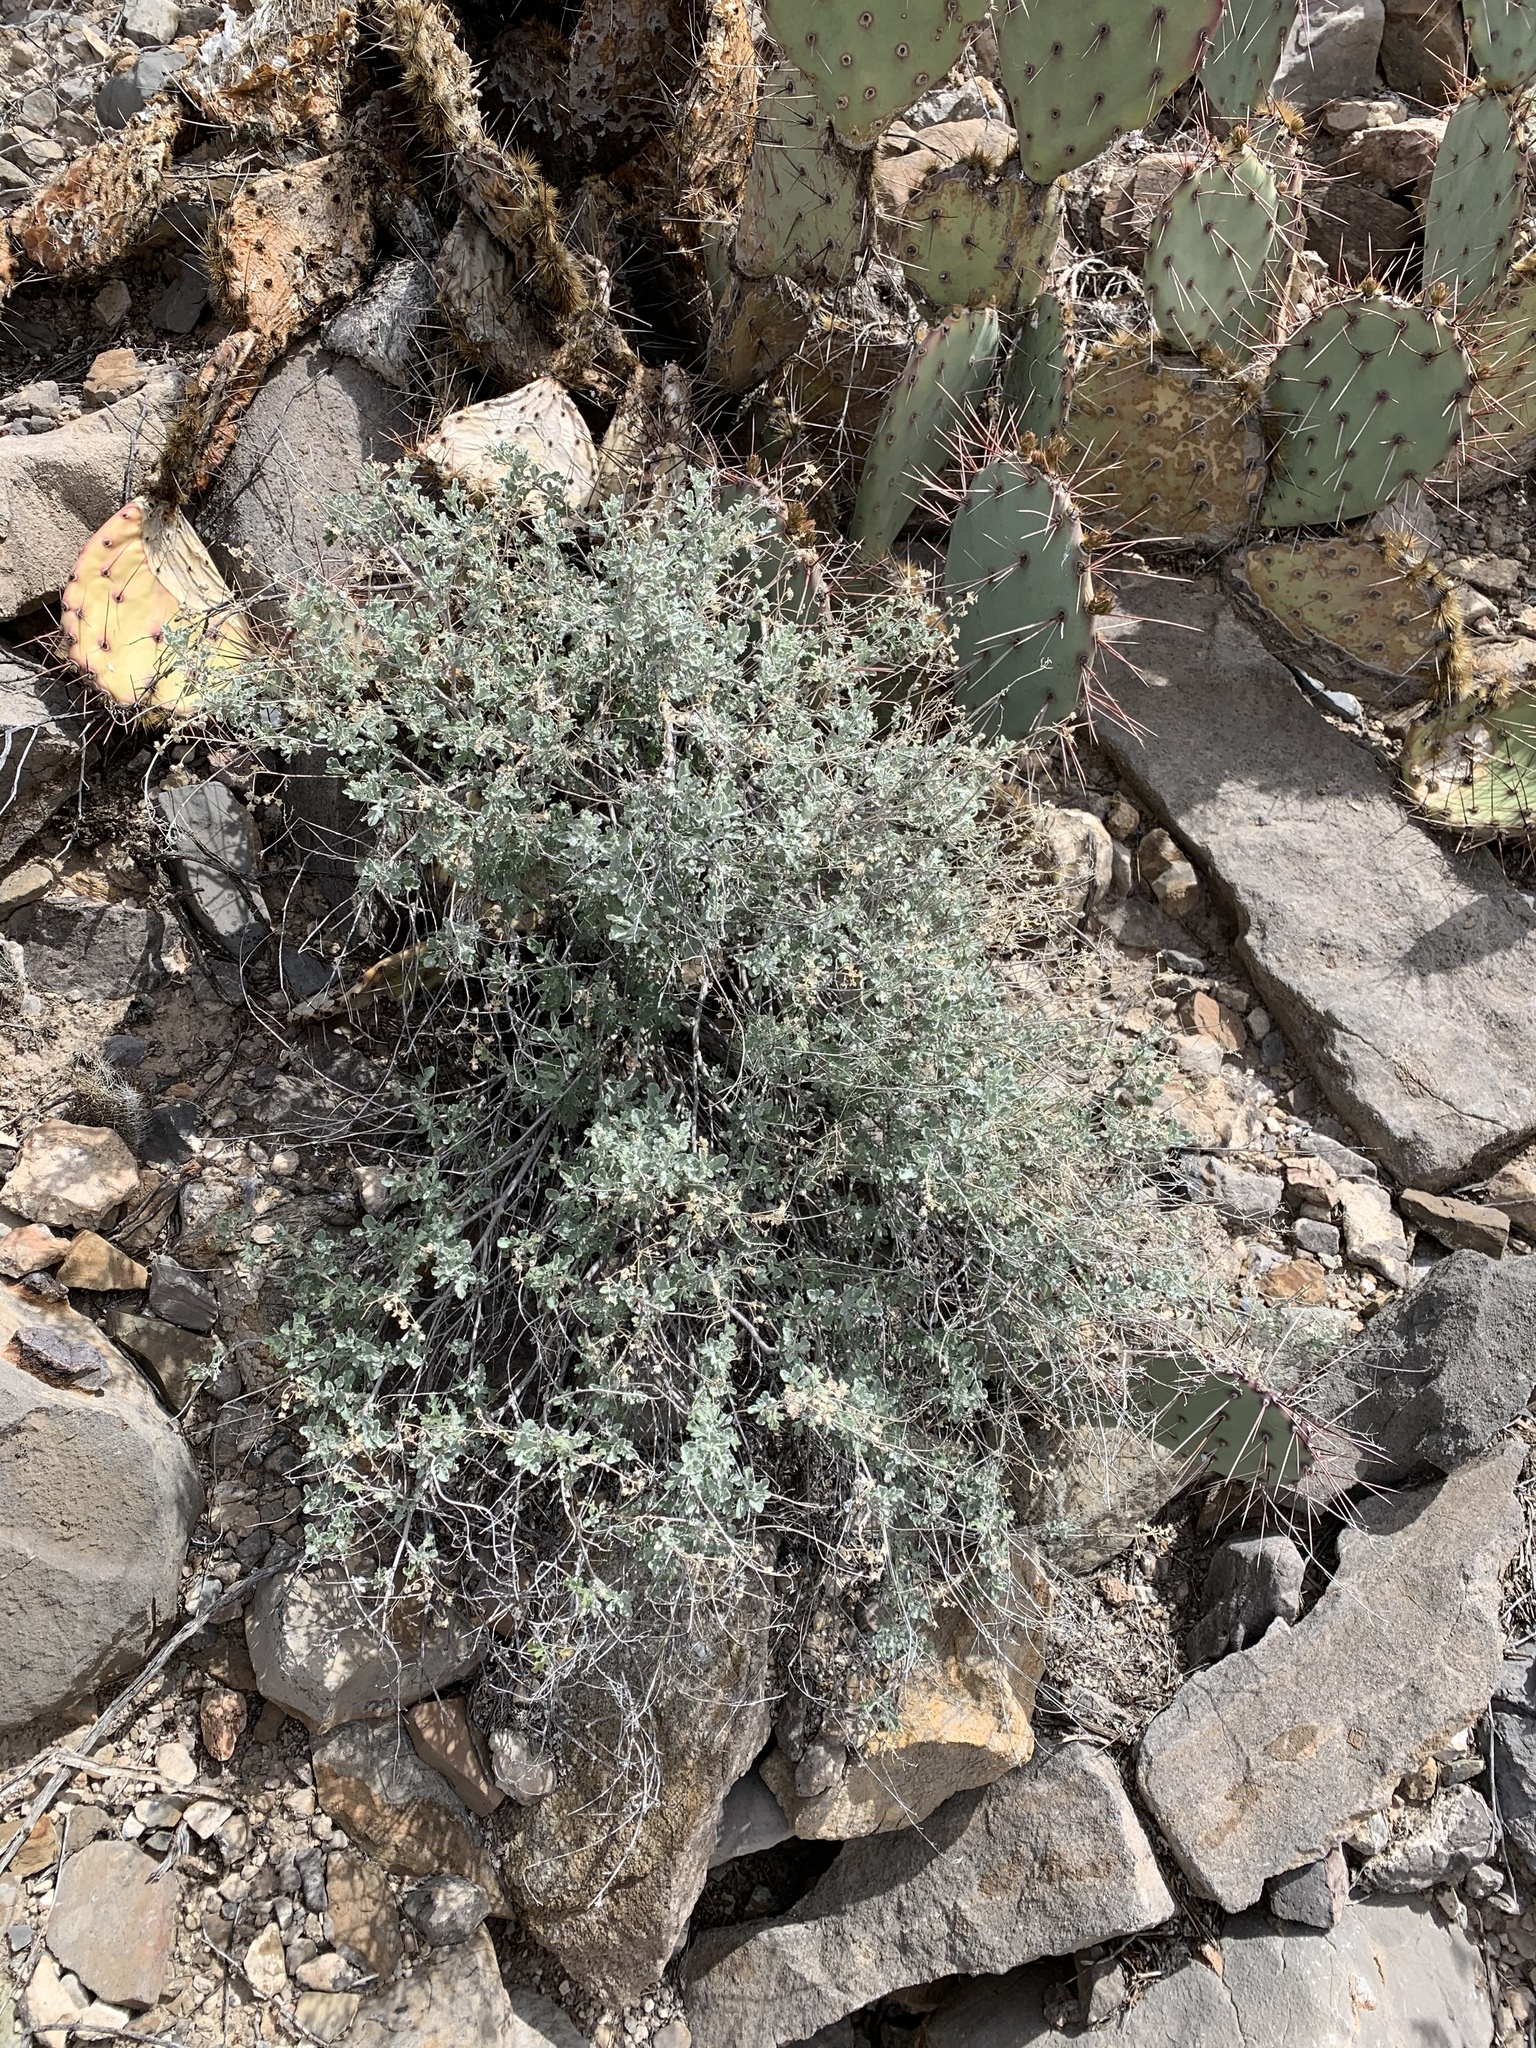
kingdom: Plantae
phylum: Tracheophyta
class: Magnoliopsida
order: Asterales
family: Asteraceae
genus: Parthenium
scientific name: Parthenium incanum
